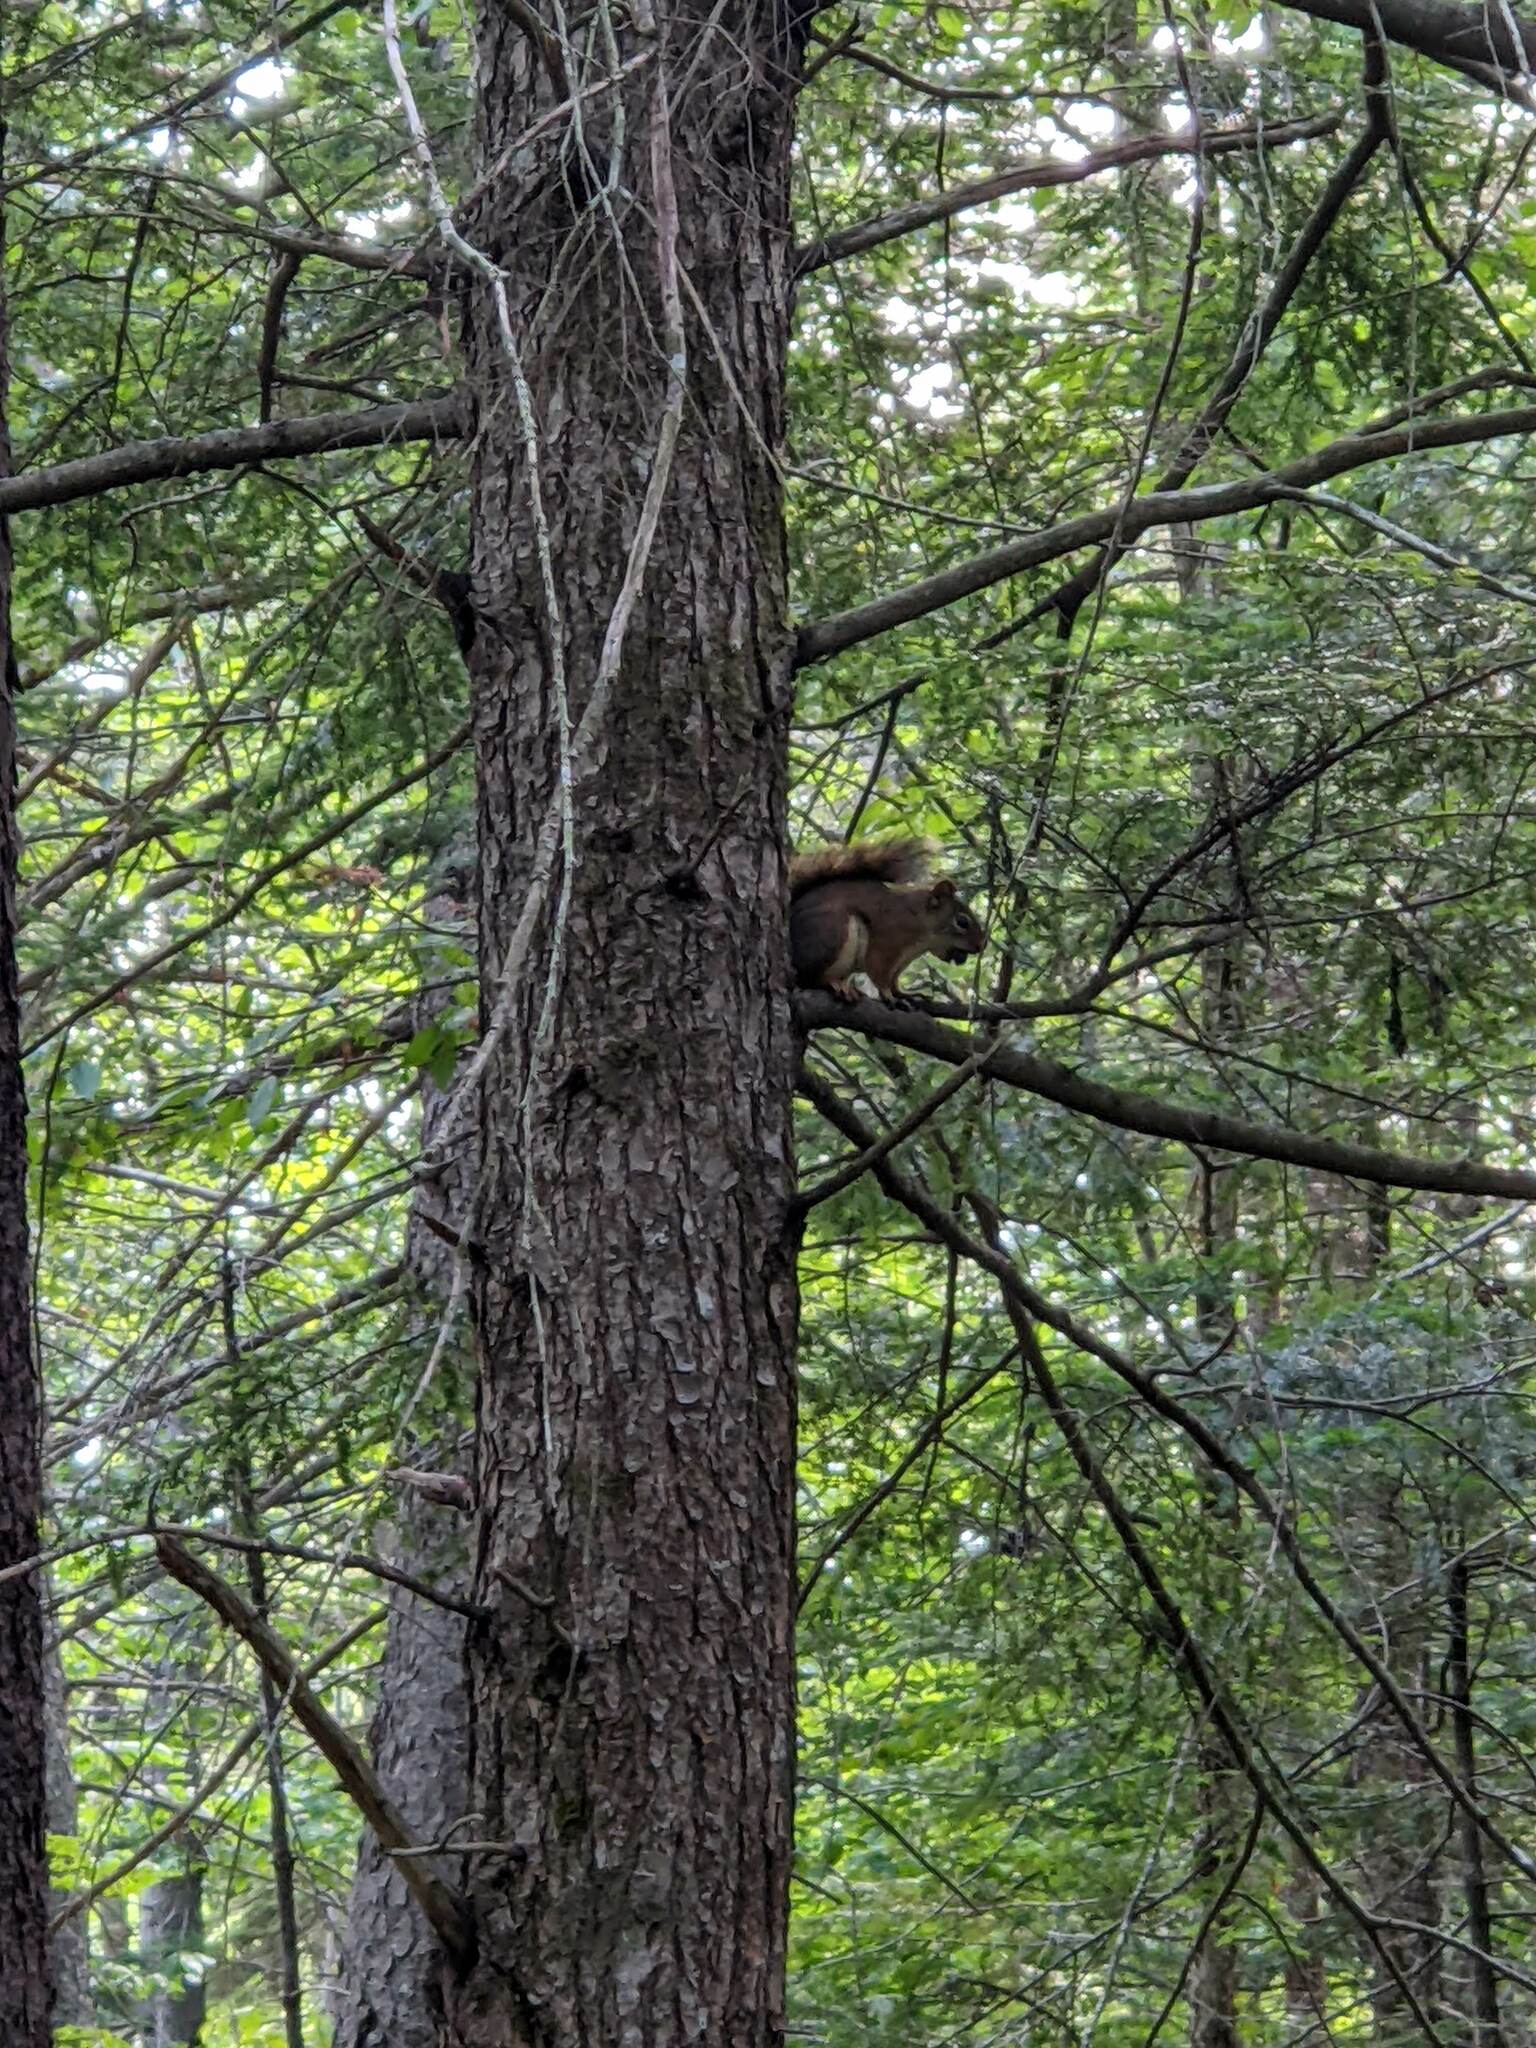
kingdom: Animalia
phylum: Chordata
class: Mammalia
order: Rodentia
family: Sciuridae
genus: Tamiasciurus
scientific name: Tamiasciurus hudsonicus
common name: Red squirrel
